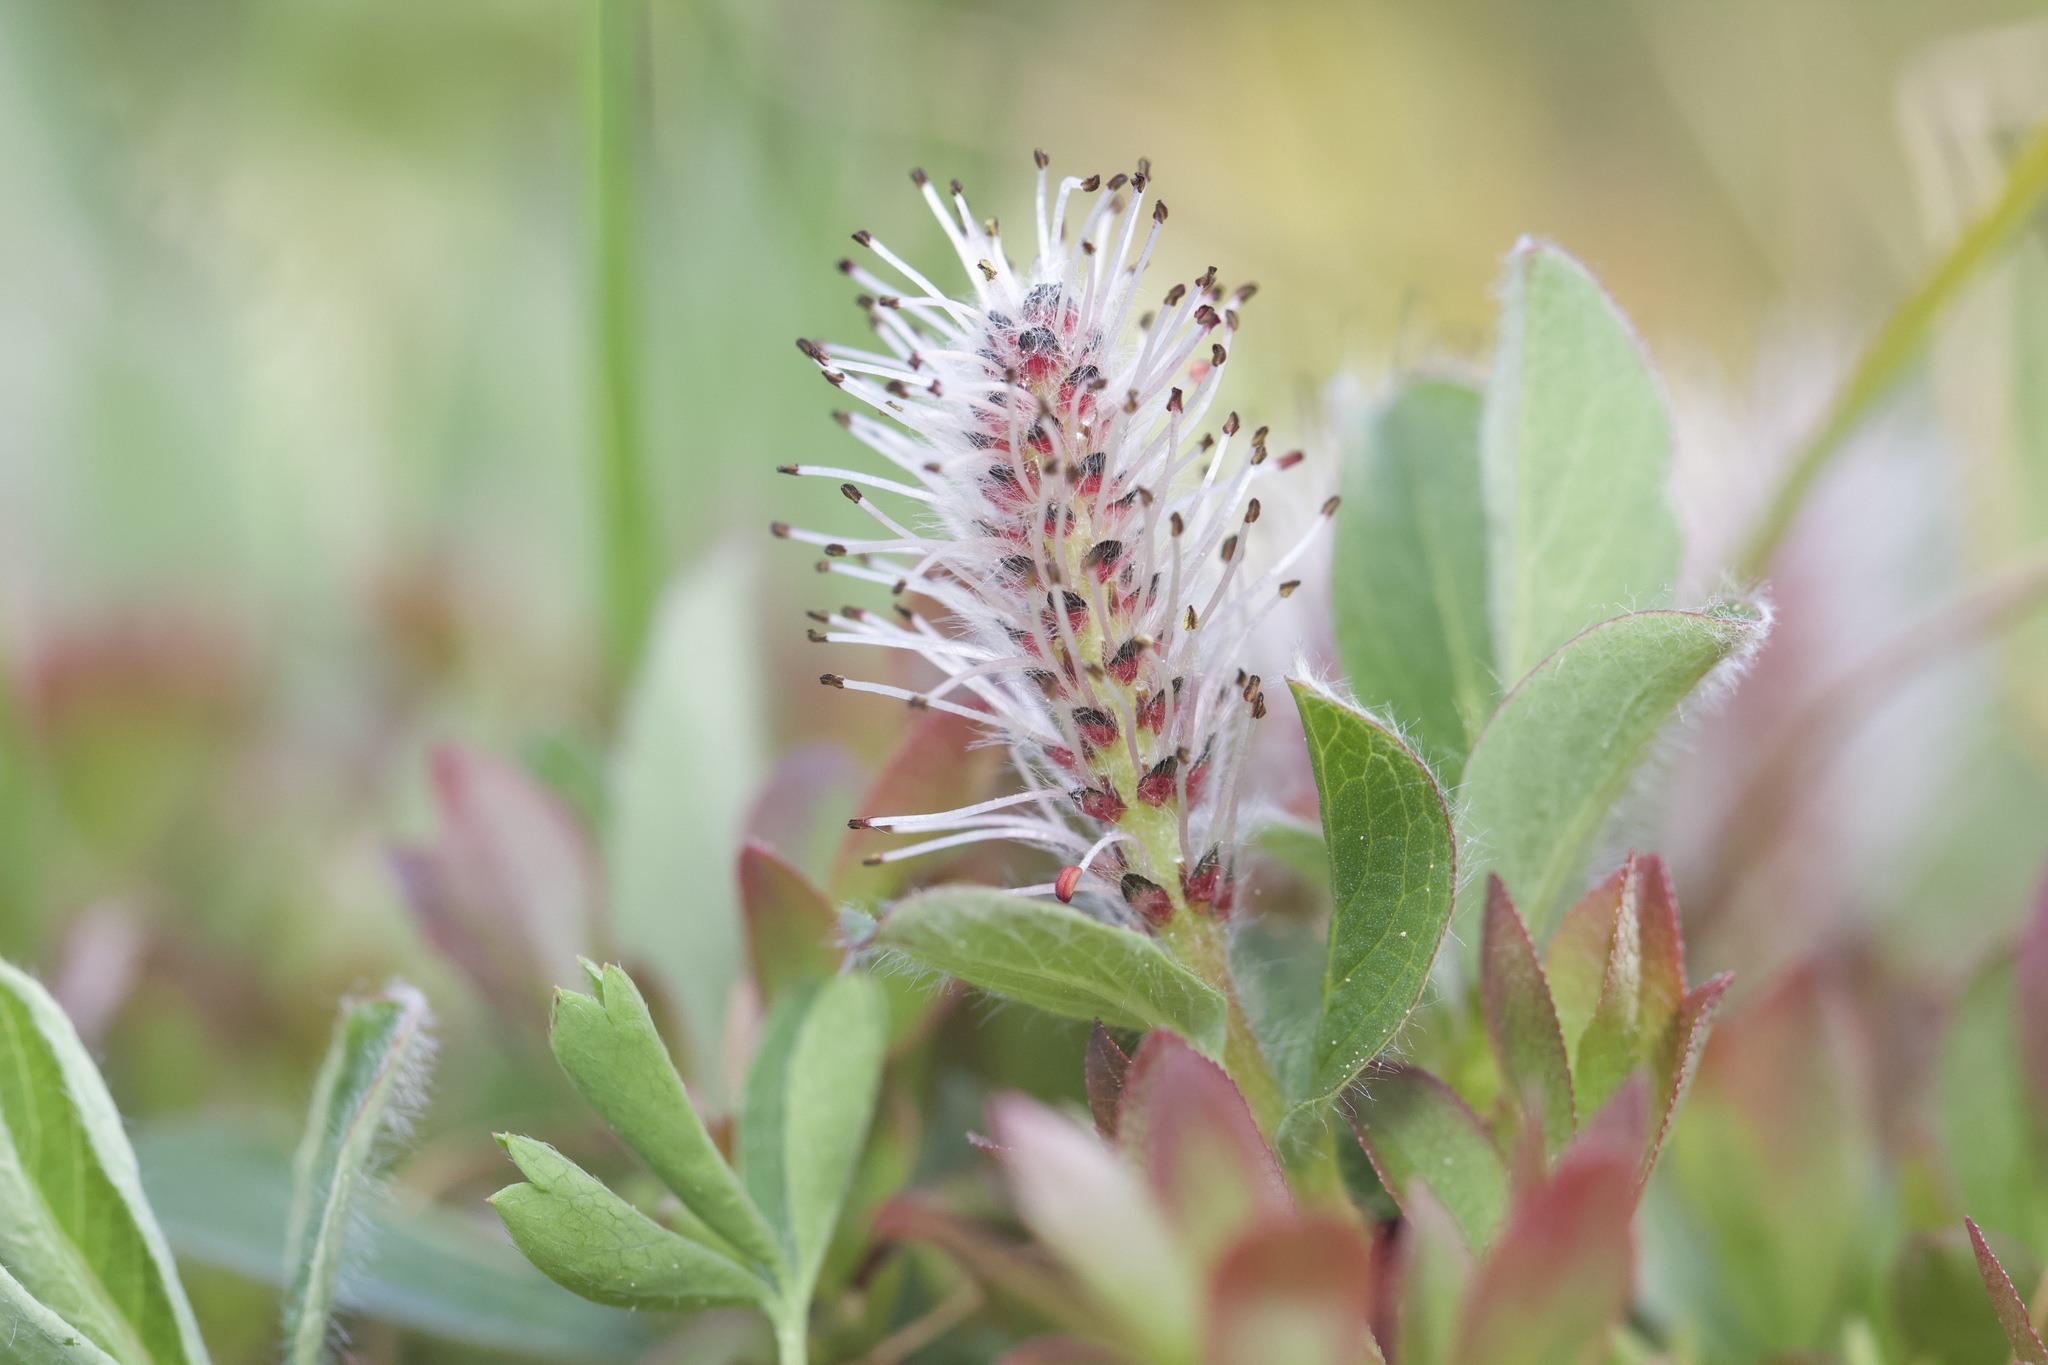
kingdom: Plantae
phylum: Tracheophyta
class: Magnoliopsida
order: Malpighiales
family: Salicaceae
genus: Salix
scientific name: Salix arctica
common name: Arctic willow
